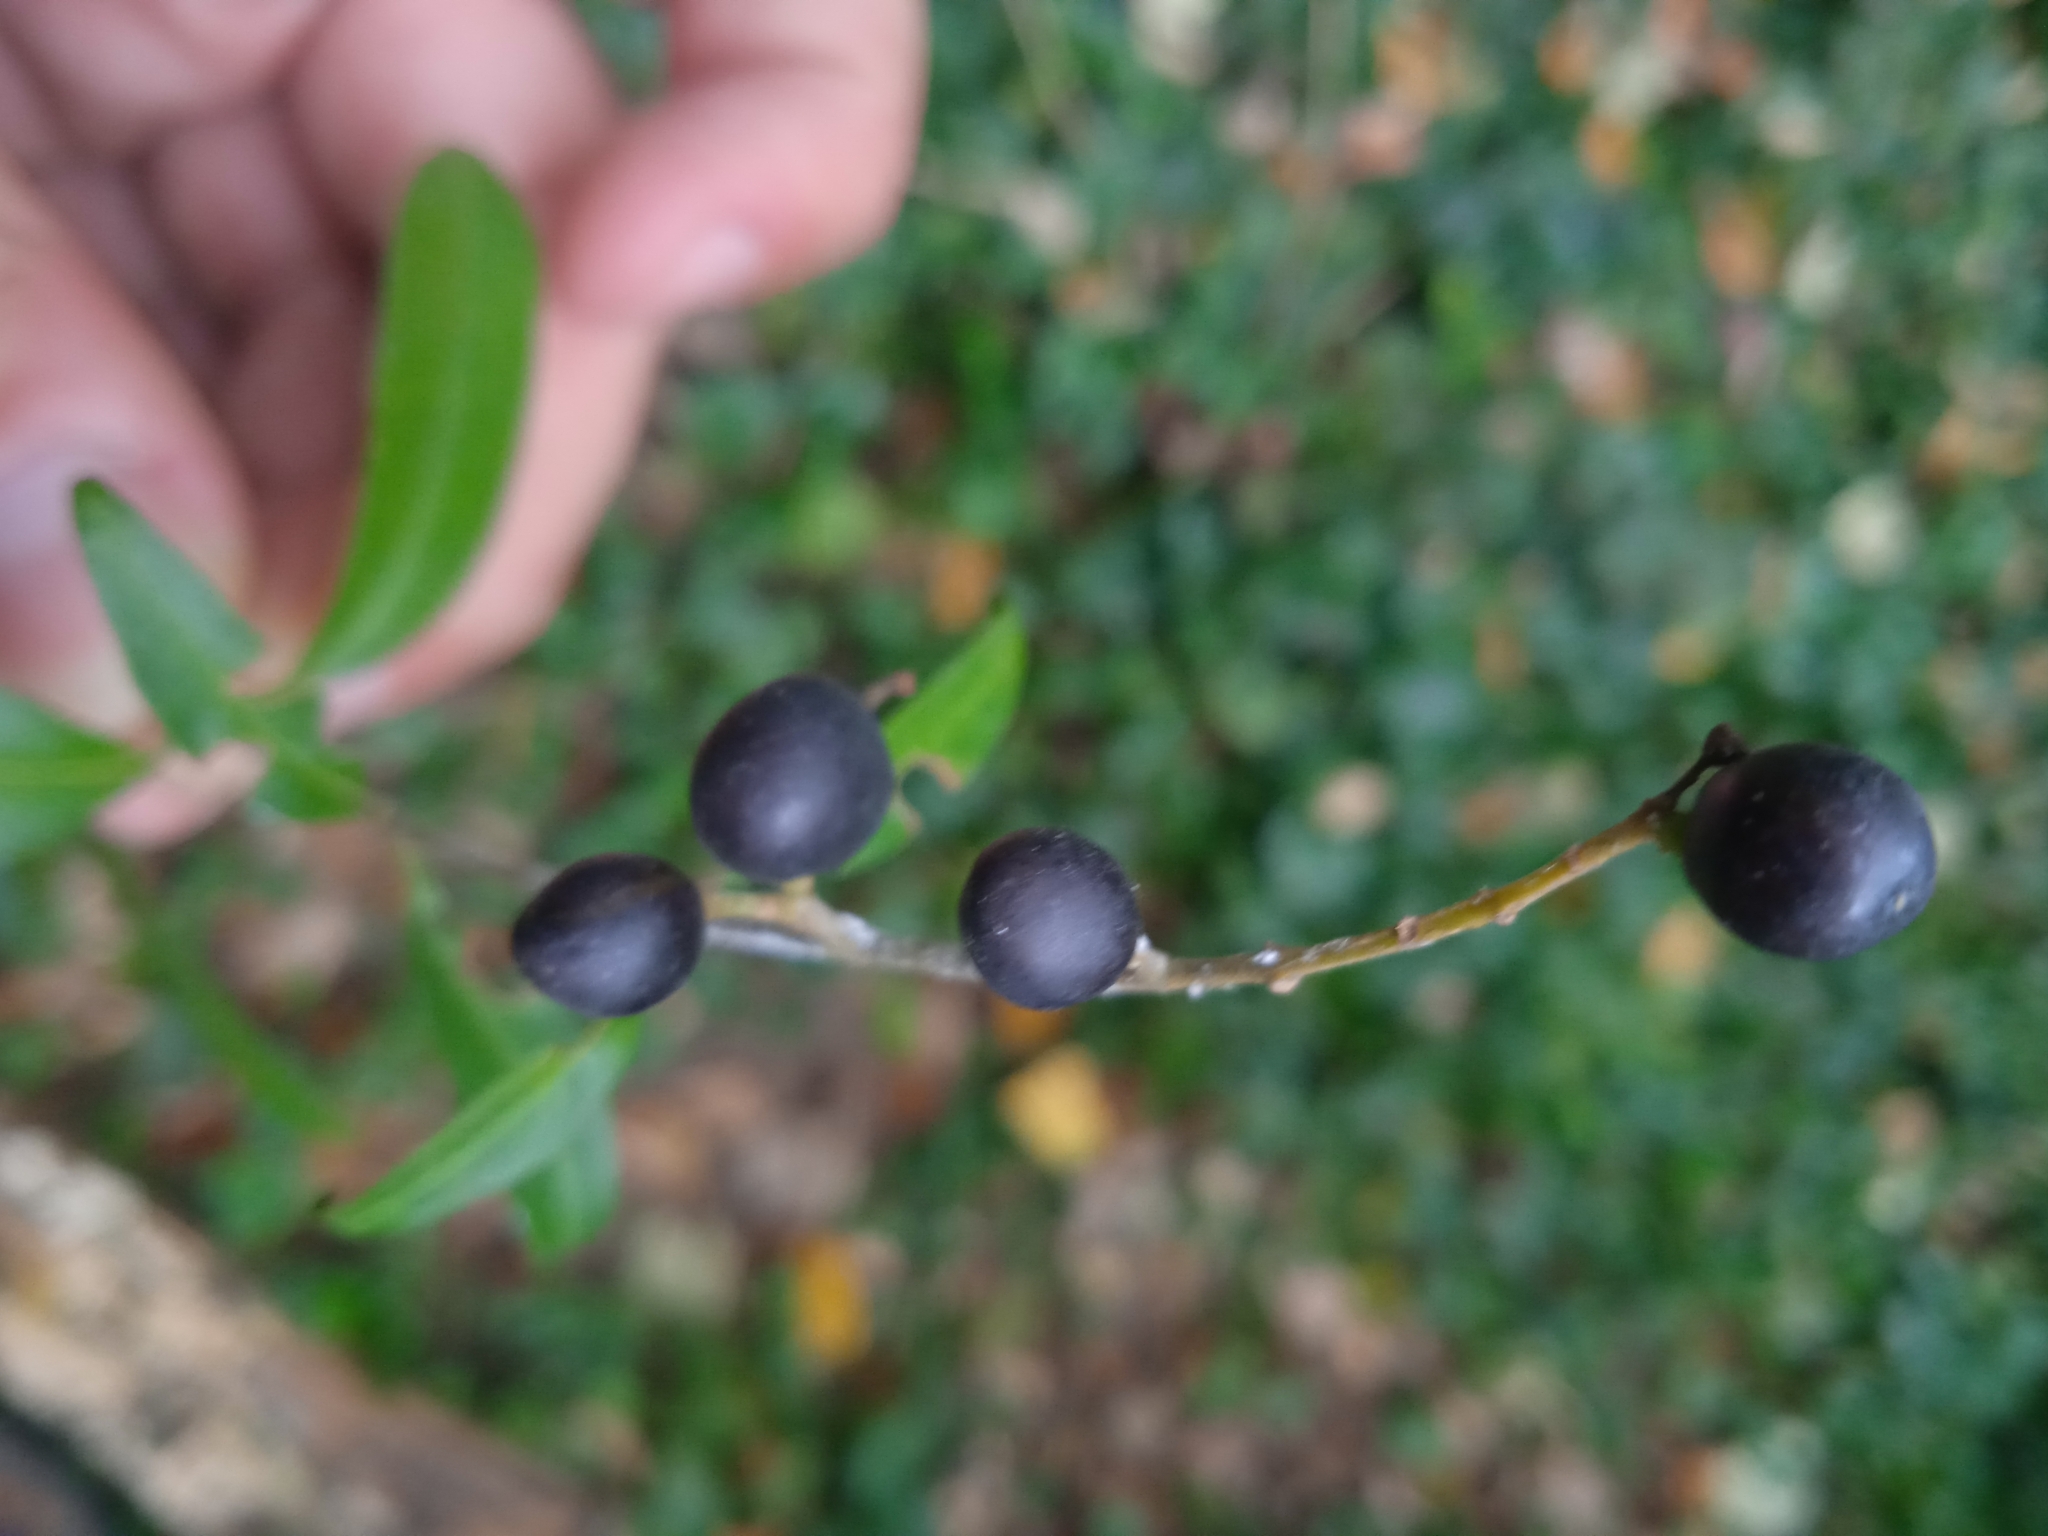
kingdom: Plantae
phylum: Tracheophyta
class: Magnoliopsida
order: Lamiales
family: Oleaceae
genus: Ligustrum
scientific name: Ligustrum vulgare
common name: Wild privet
